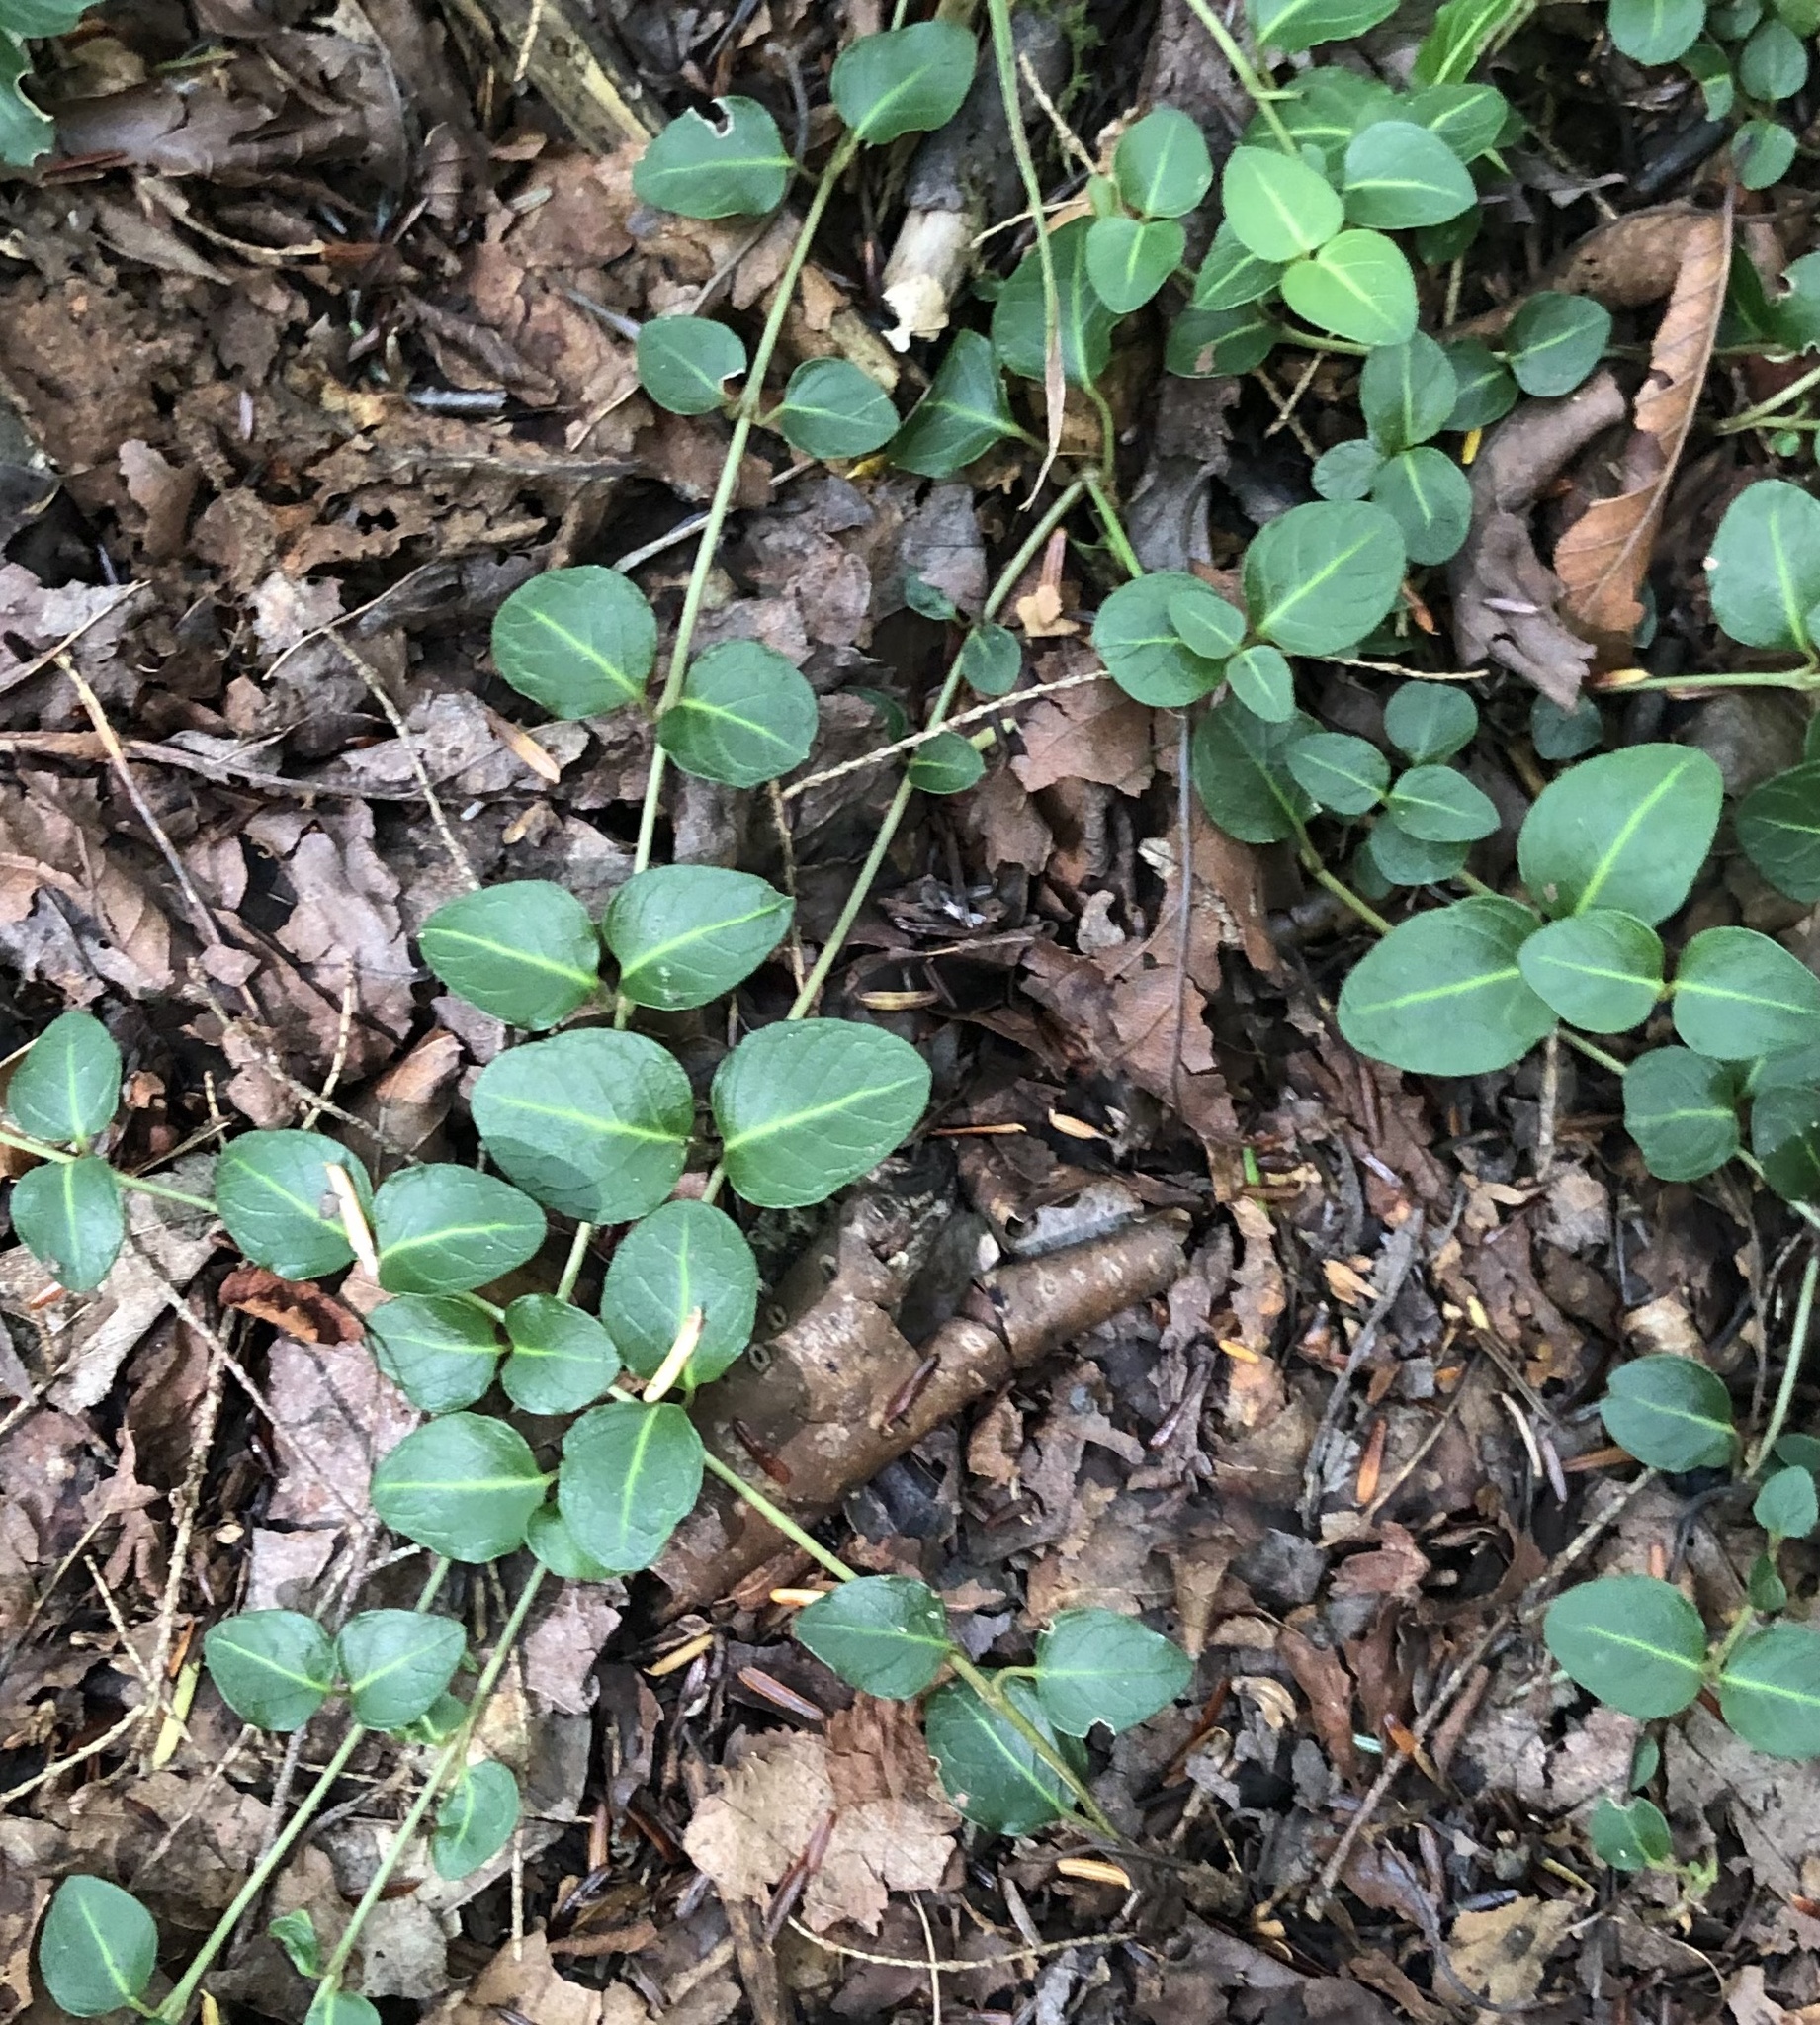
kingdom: Plantae
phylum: Tracheophyta
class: Magnoliopsida
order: Gentianales
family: Rubiaceae
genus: Mitchella
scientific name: Mitchella repens
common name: Partridge-berry
